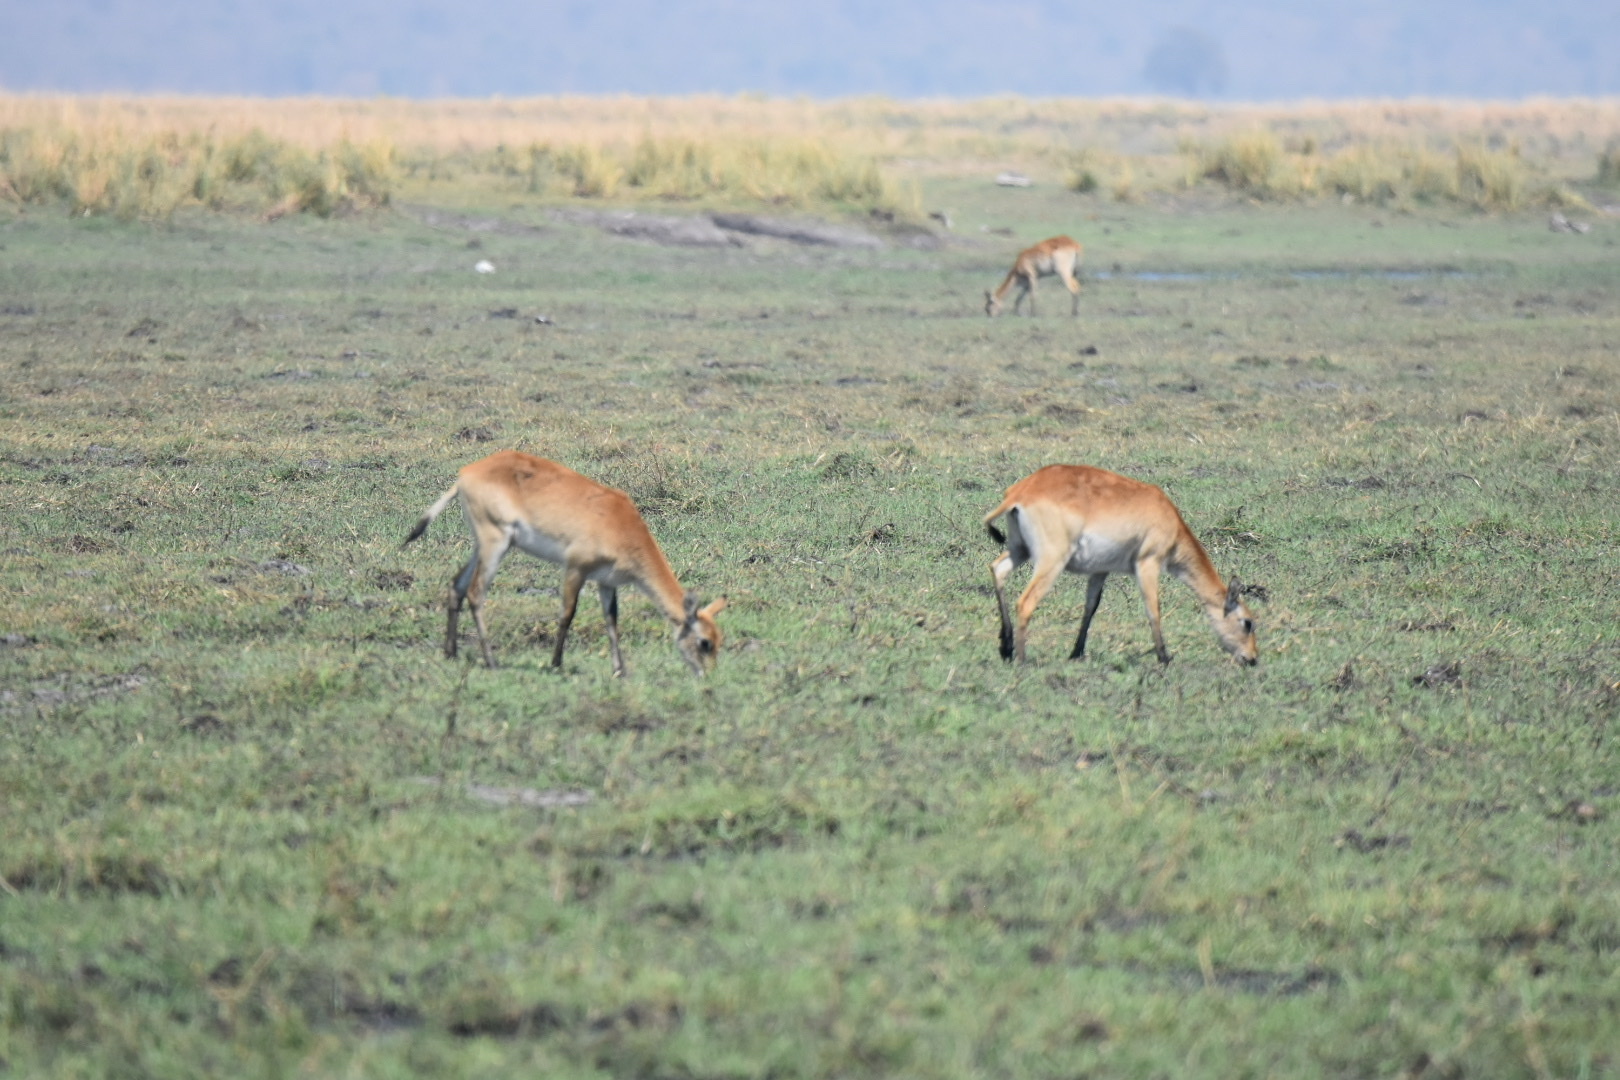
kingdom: Animalia
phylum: Chordata
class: Mammalia
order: Artiodactyla
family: Bovidae
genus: Kobus
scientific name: Kobus leche
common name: Lechwe
